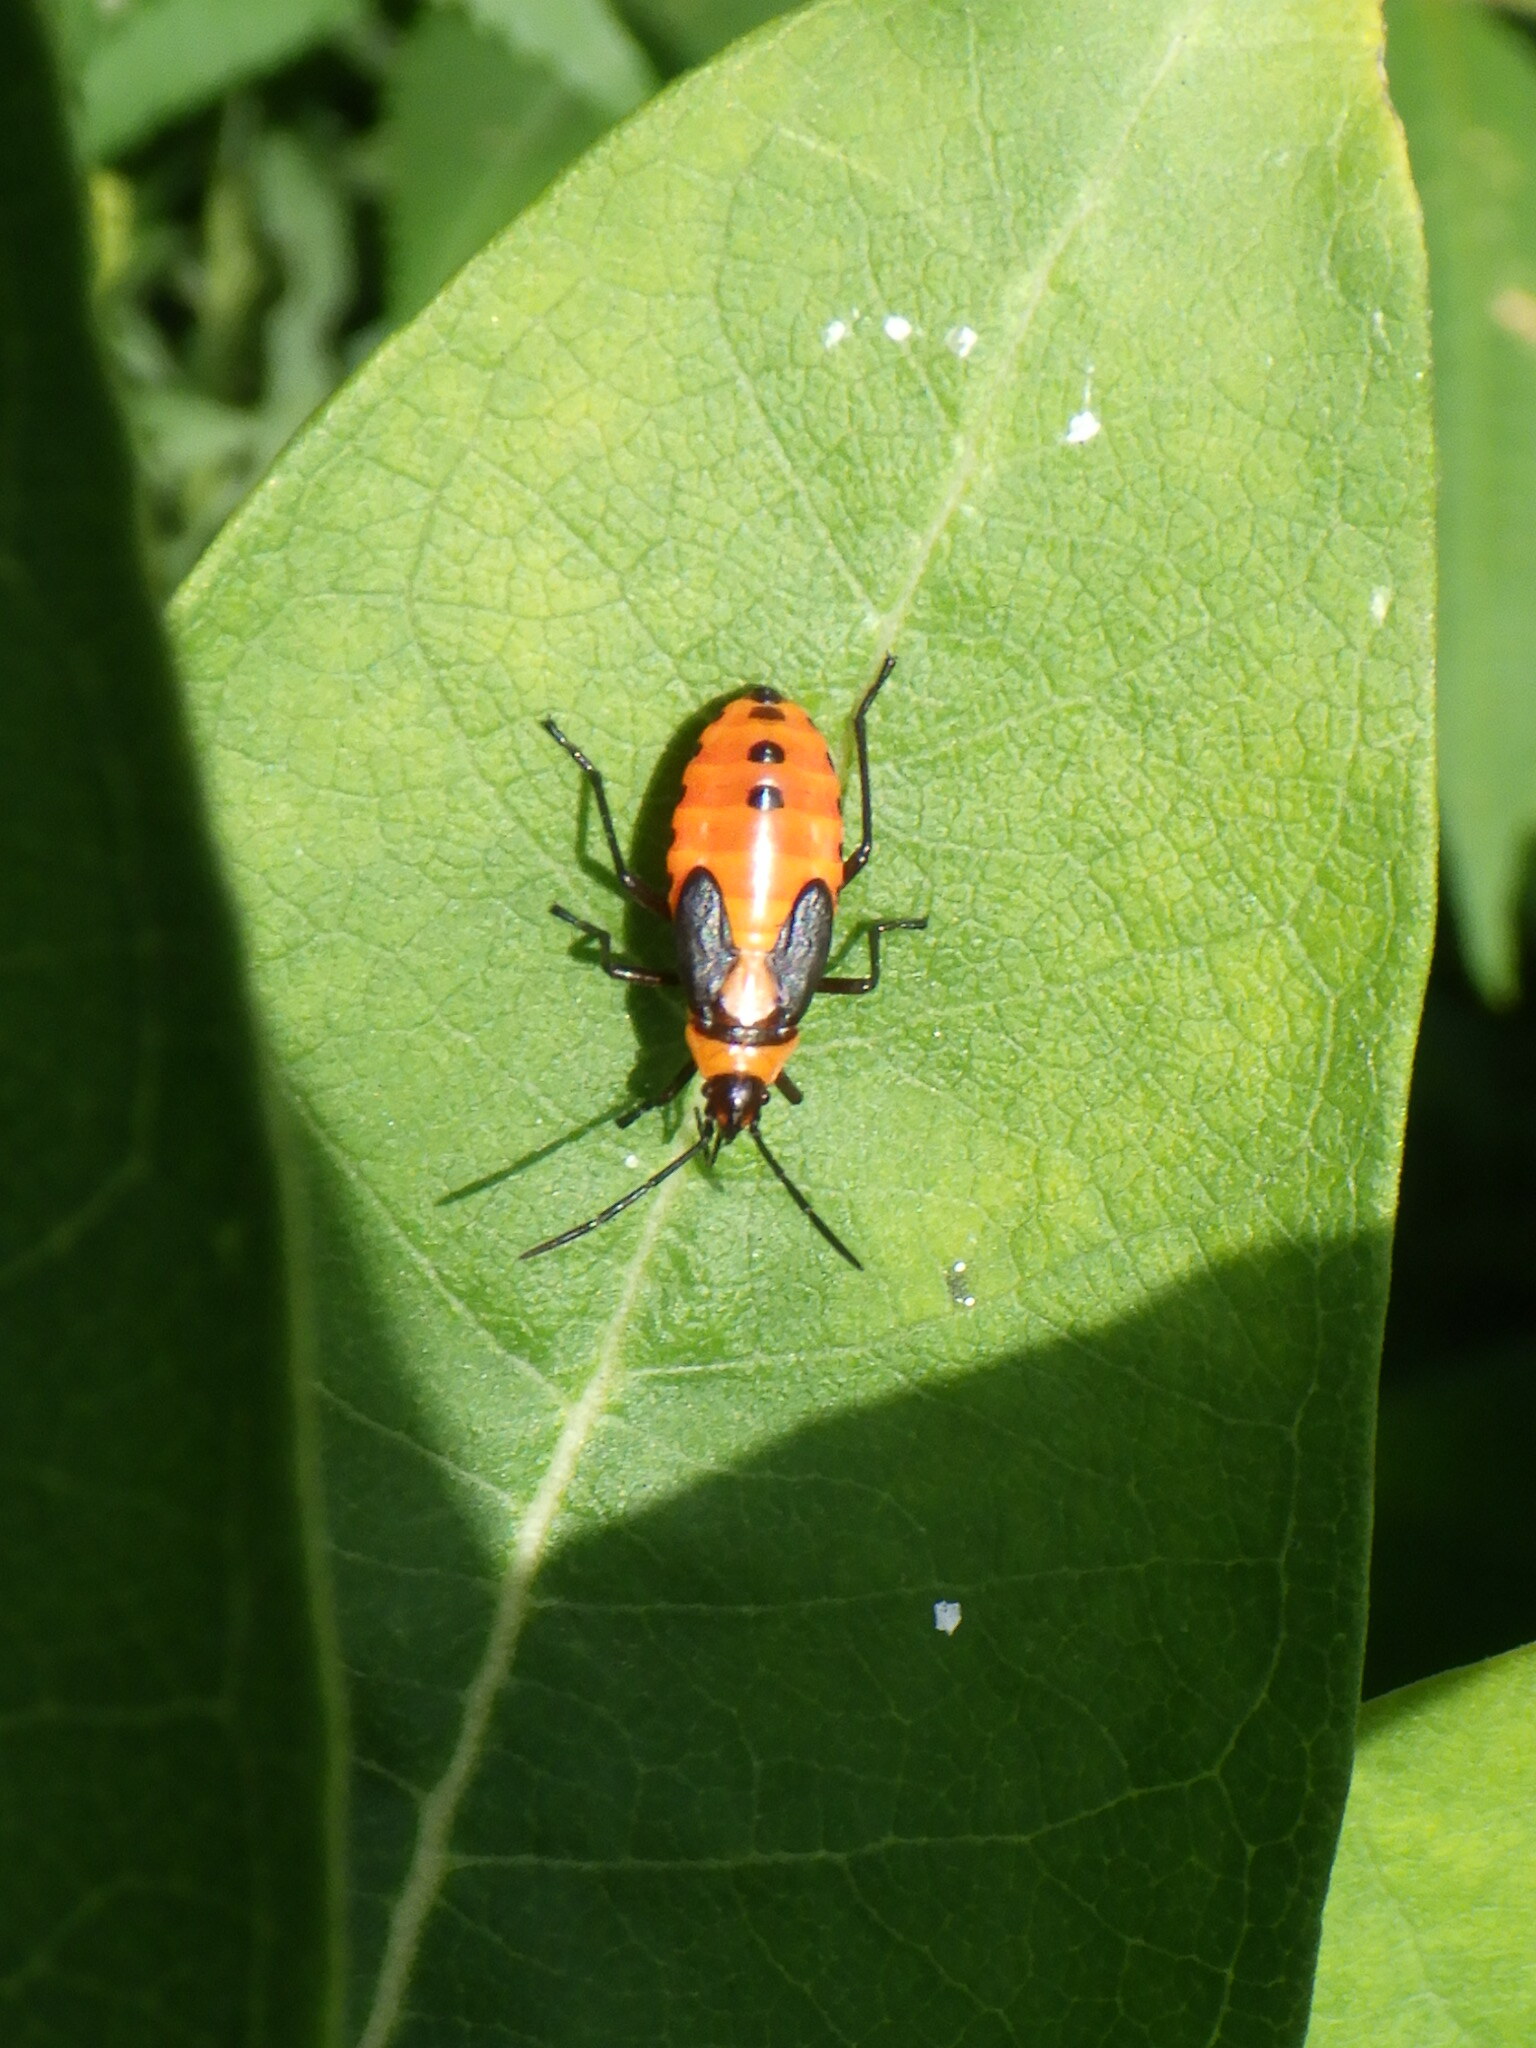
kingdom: Animalia
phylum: Arthropoda
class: Insecta
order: Hemiptera
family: Lygaeidae
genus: Oncopeltus
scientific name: Oncopeltus fasciatus
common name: Large milkweed bug
